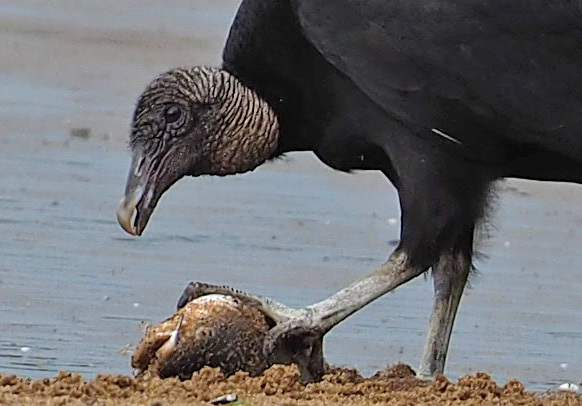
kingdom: Animalia
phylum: Chordata
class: Aves
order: Accipitriformes
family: Cathartidae
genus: Coragyps
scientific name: Coragyps atratus
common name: Black vulture
